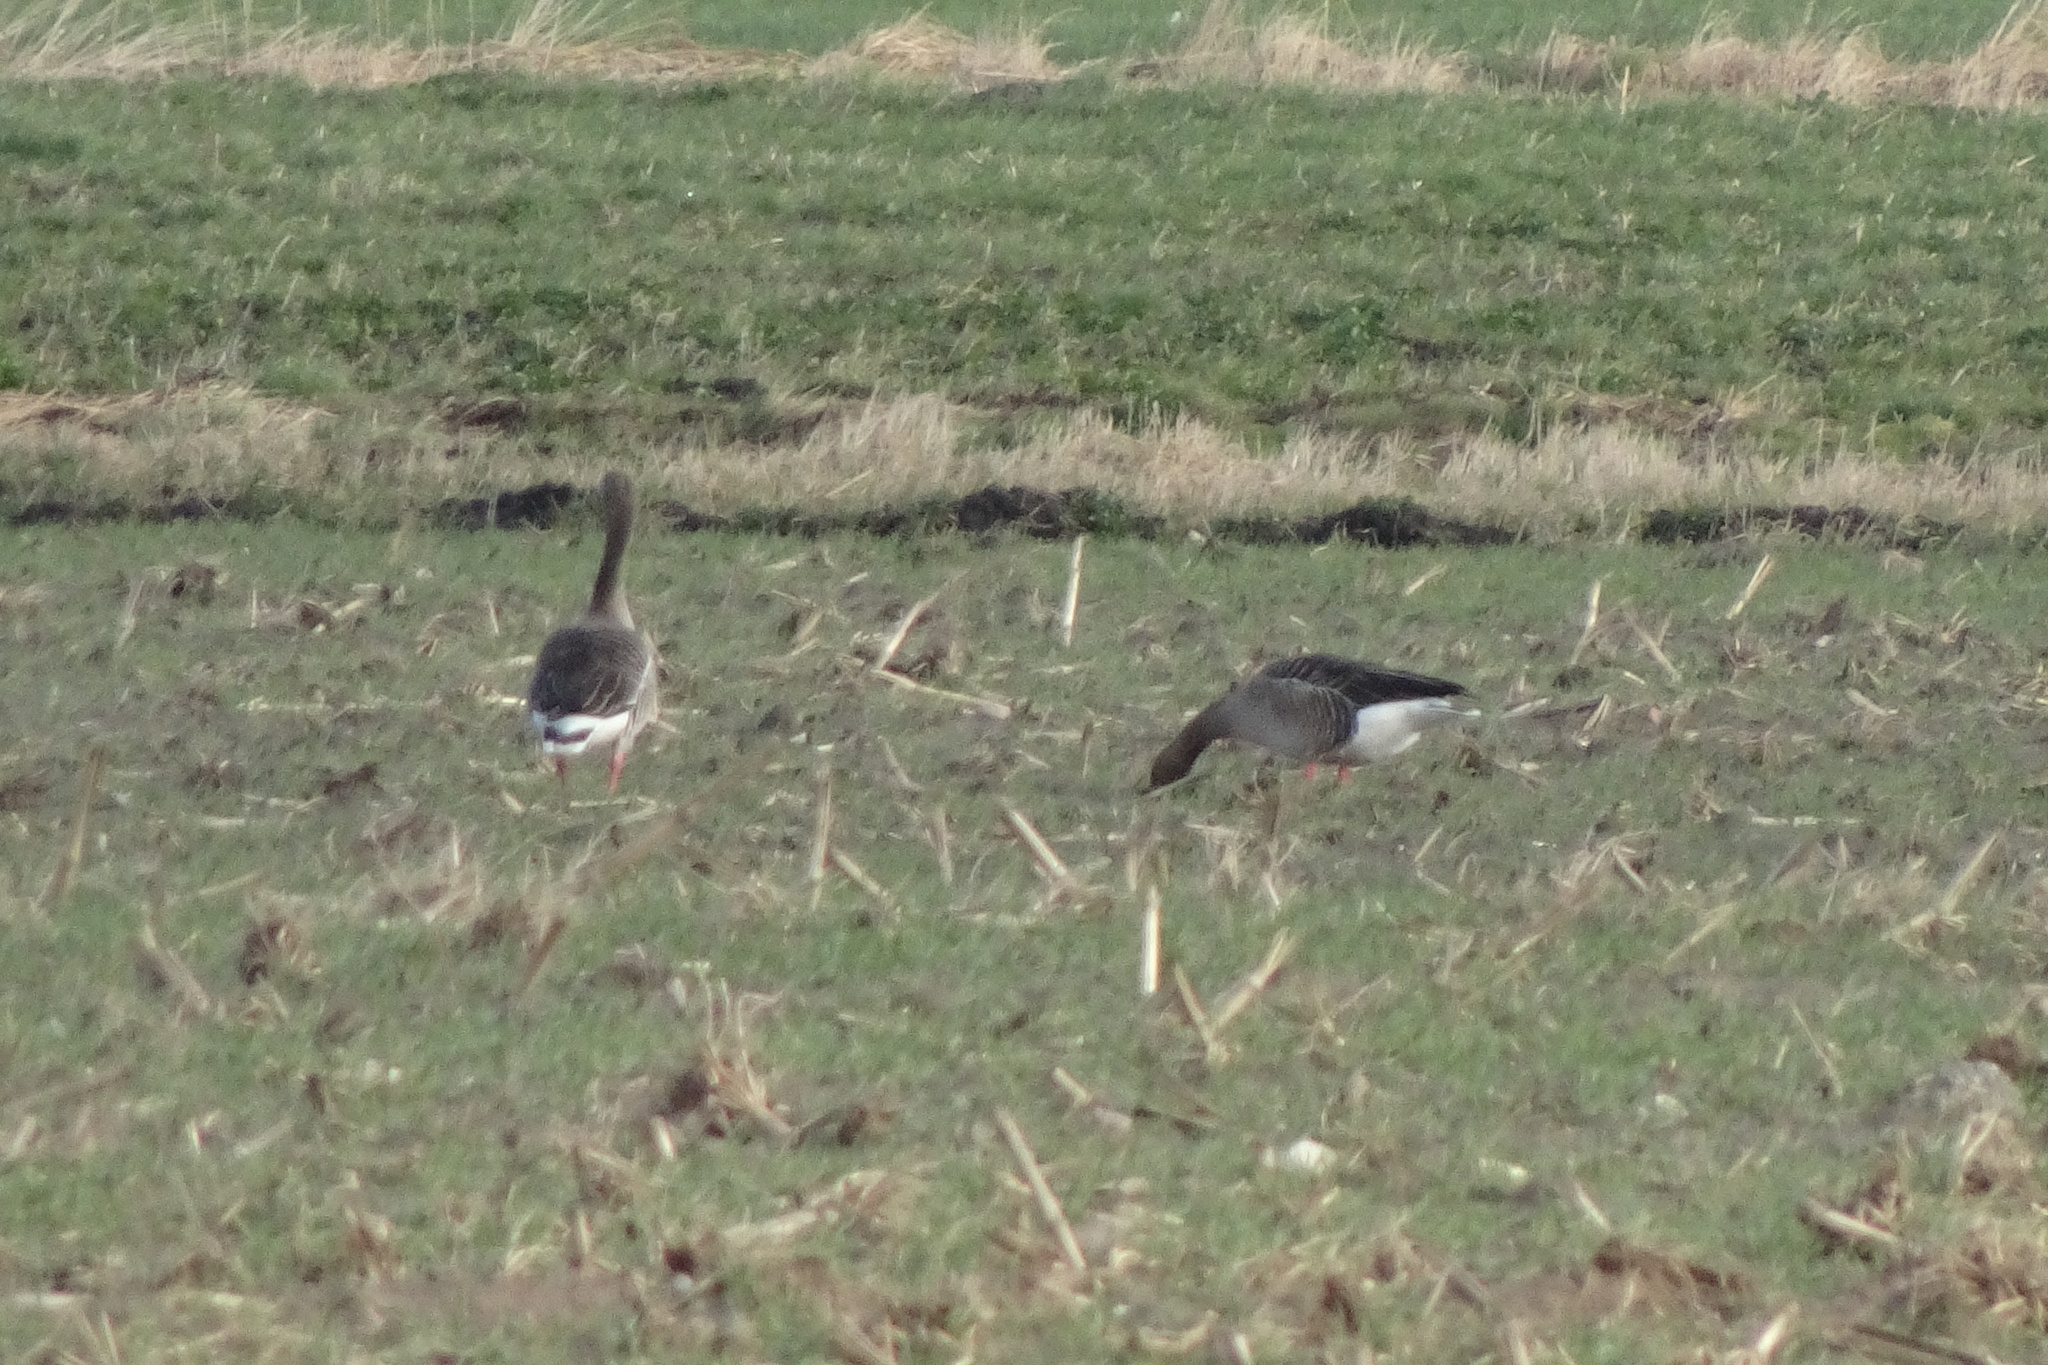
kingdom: Animalia
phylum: Chordata
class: Aves
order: Anseriformes
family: Anatidae
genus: Anser
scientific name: Anser anser
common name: Greylag goose
